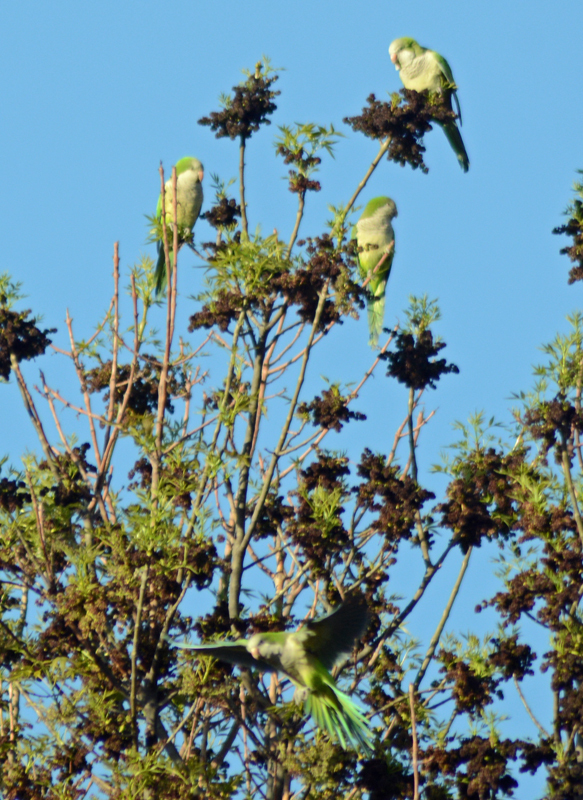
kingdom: Animalia
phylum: Chordata
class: Aves
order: Psittaciformes
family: Psittacidae
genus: Myiopsitta
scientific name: Myiopsitta monachus
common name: Monk parakeet
